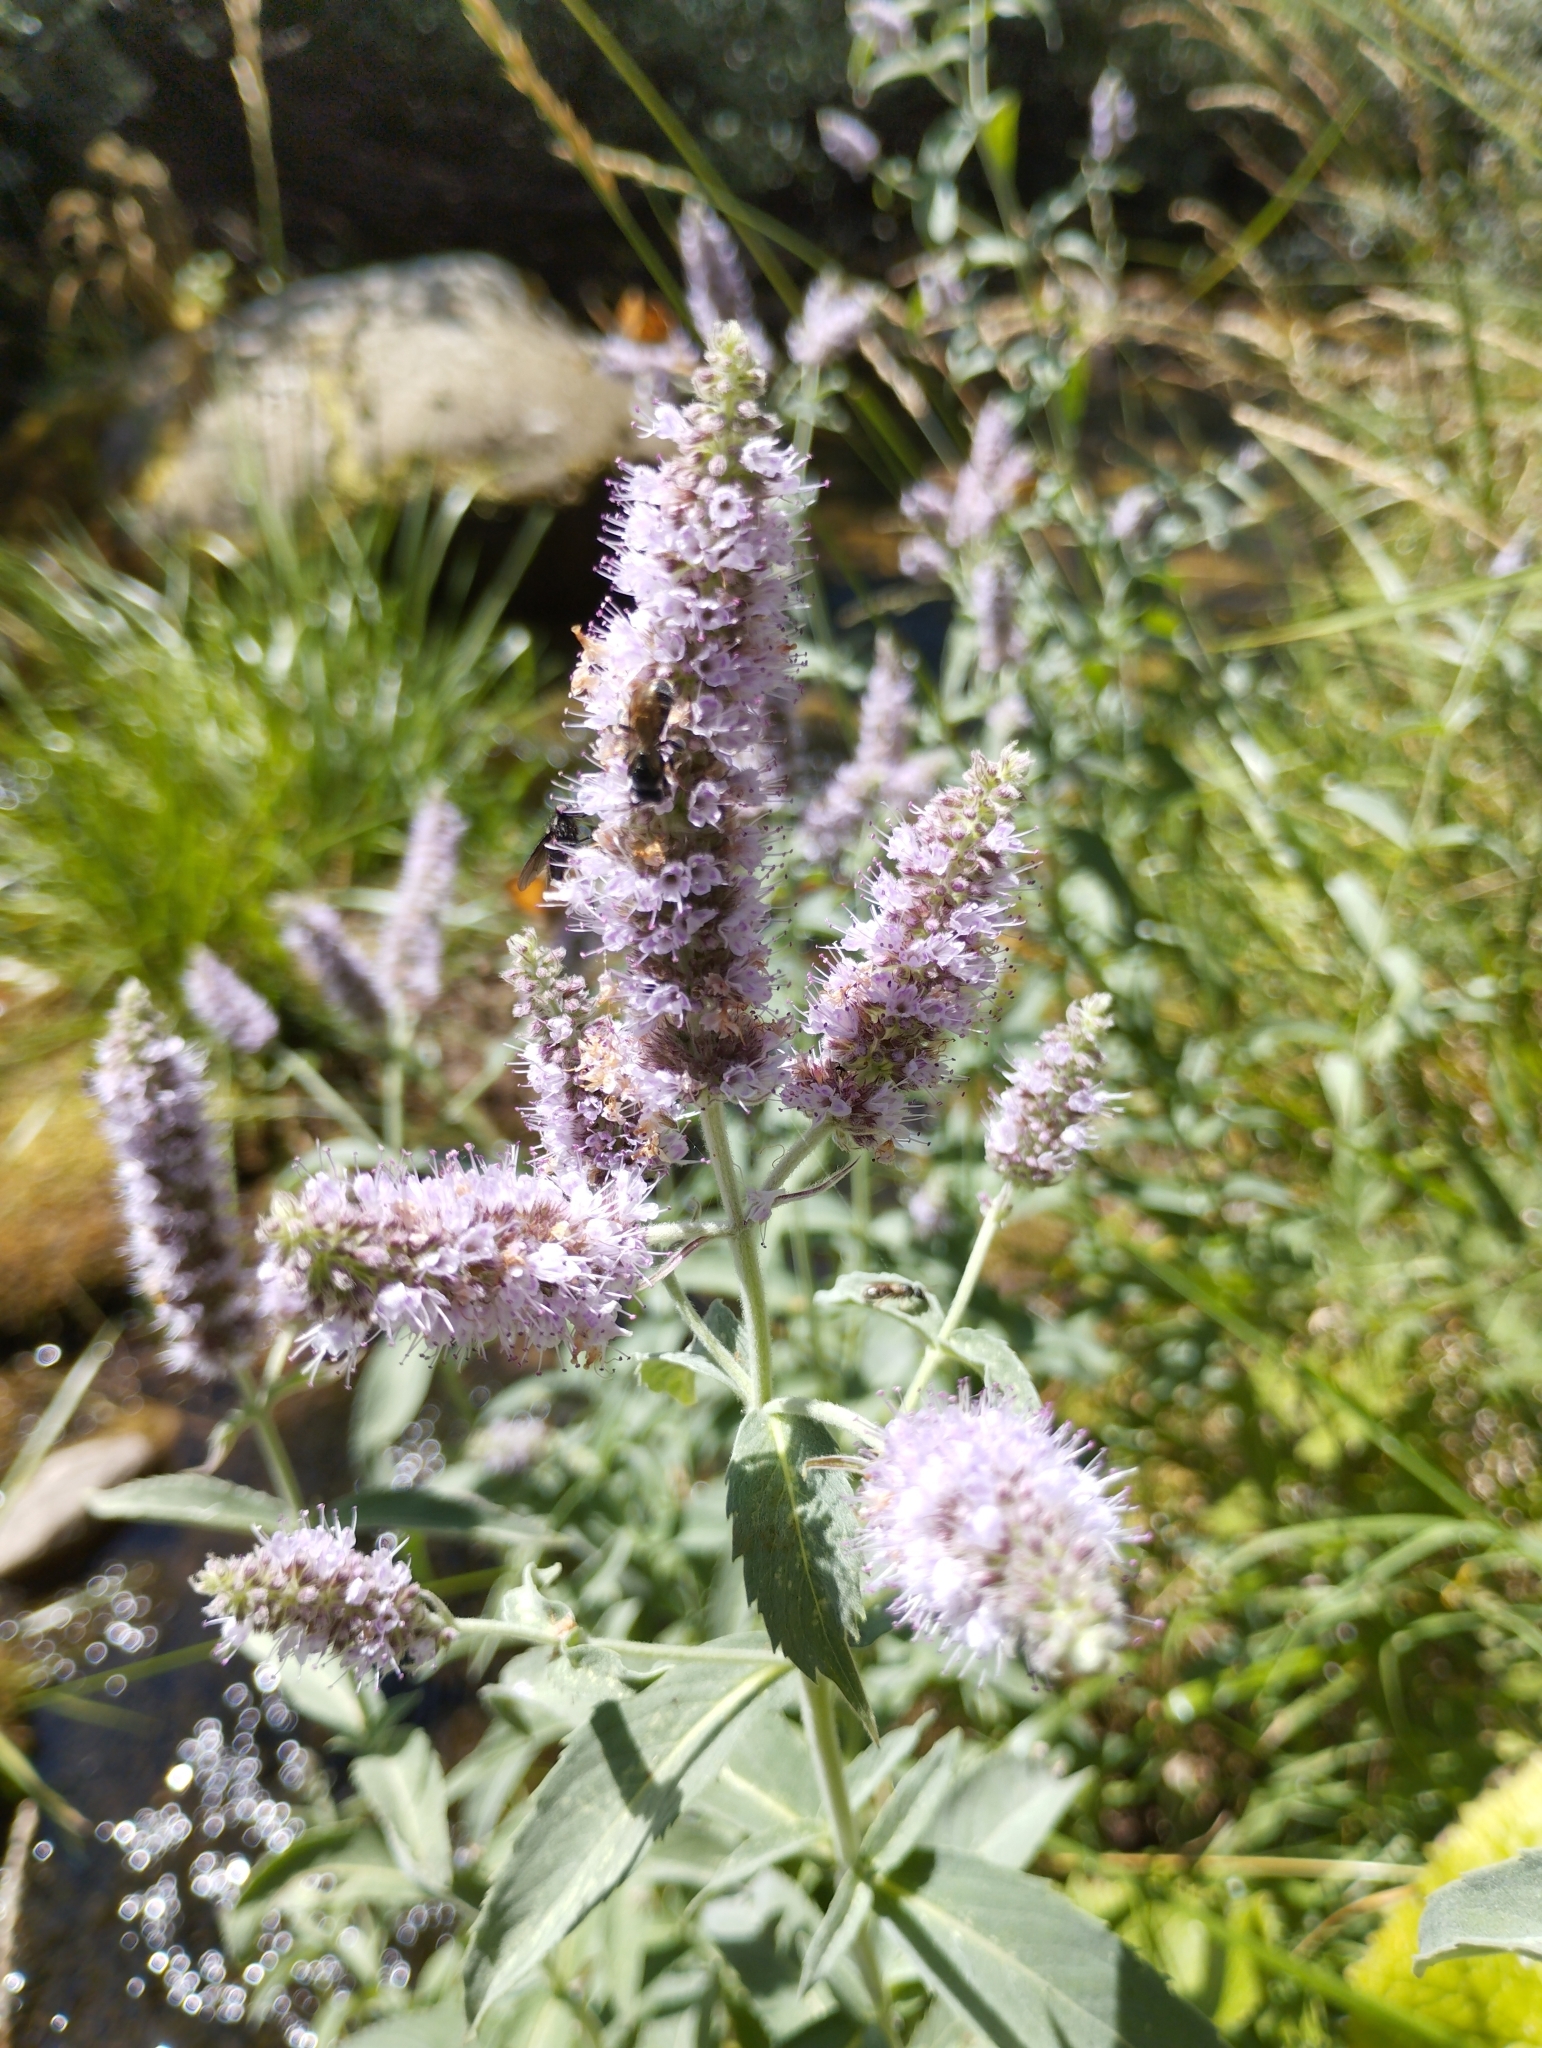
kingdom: Plantae
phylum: Tracheophyta
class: Magnoliopsida
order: Lamiales
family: Lamiaceae
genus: Mentha
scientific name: Mentha longifolia
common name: Horse mint
